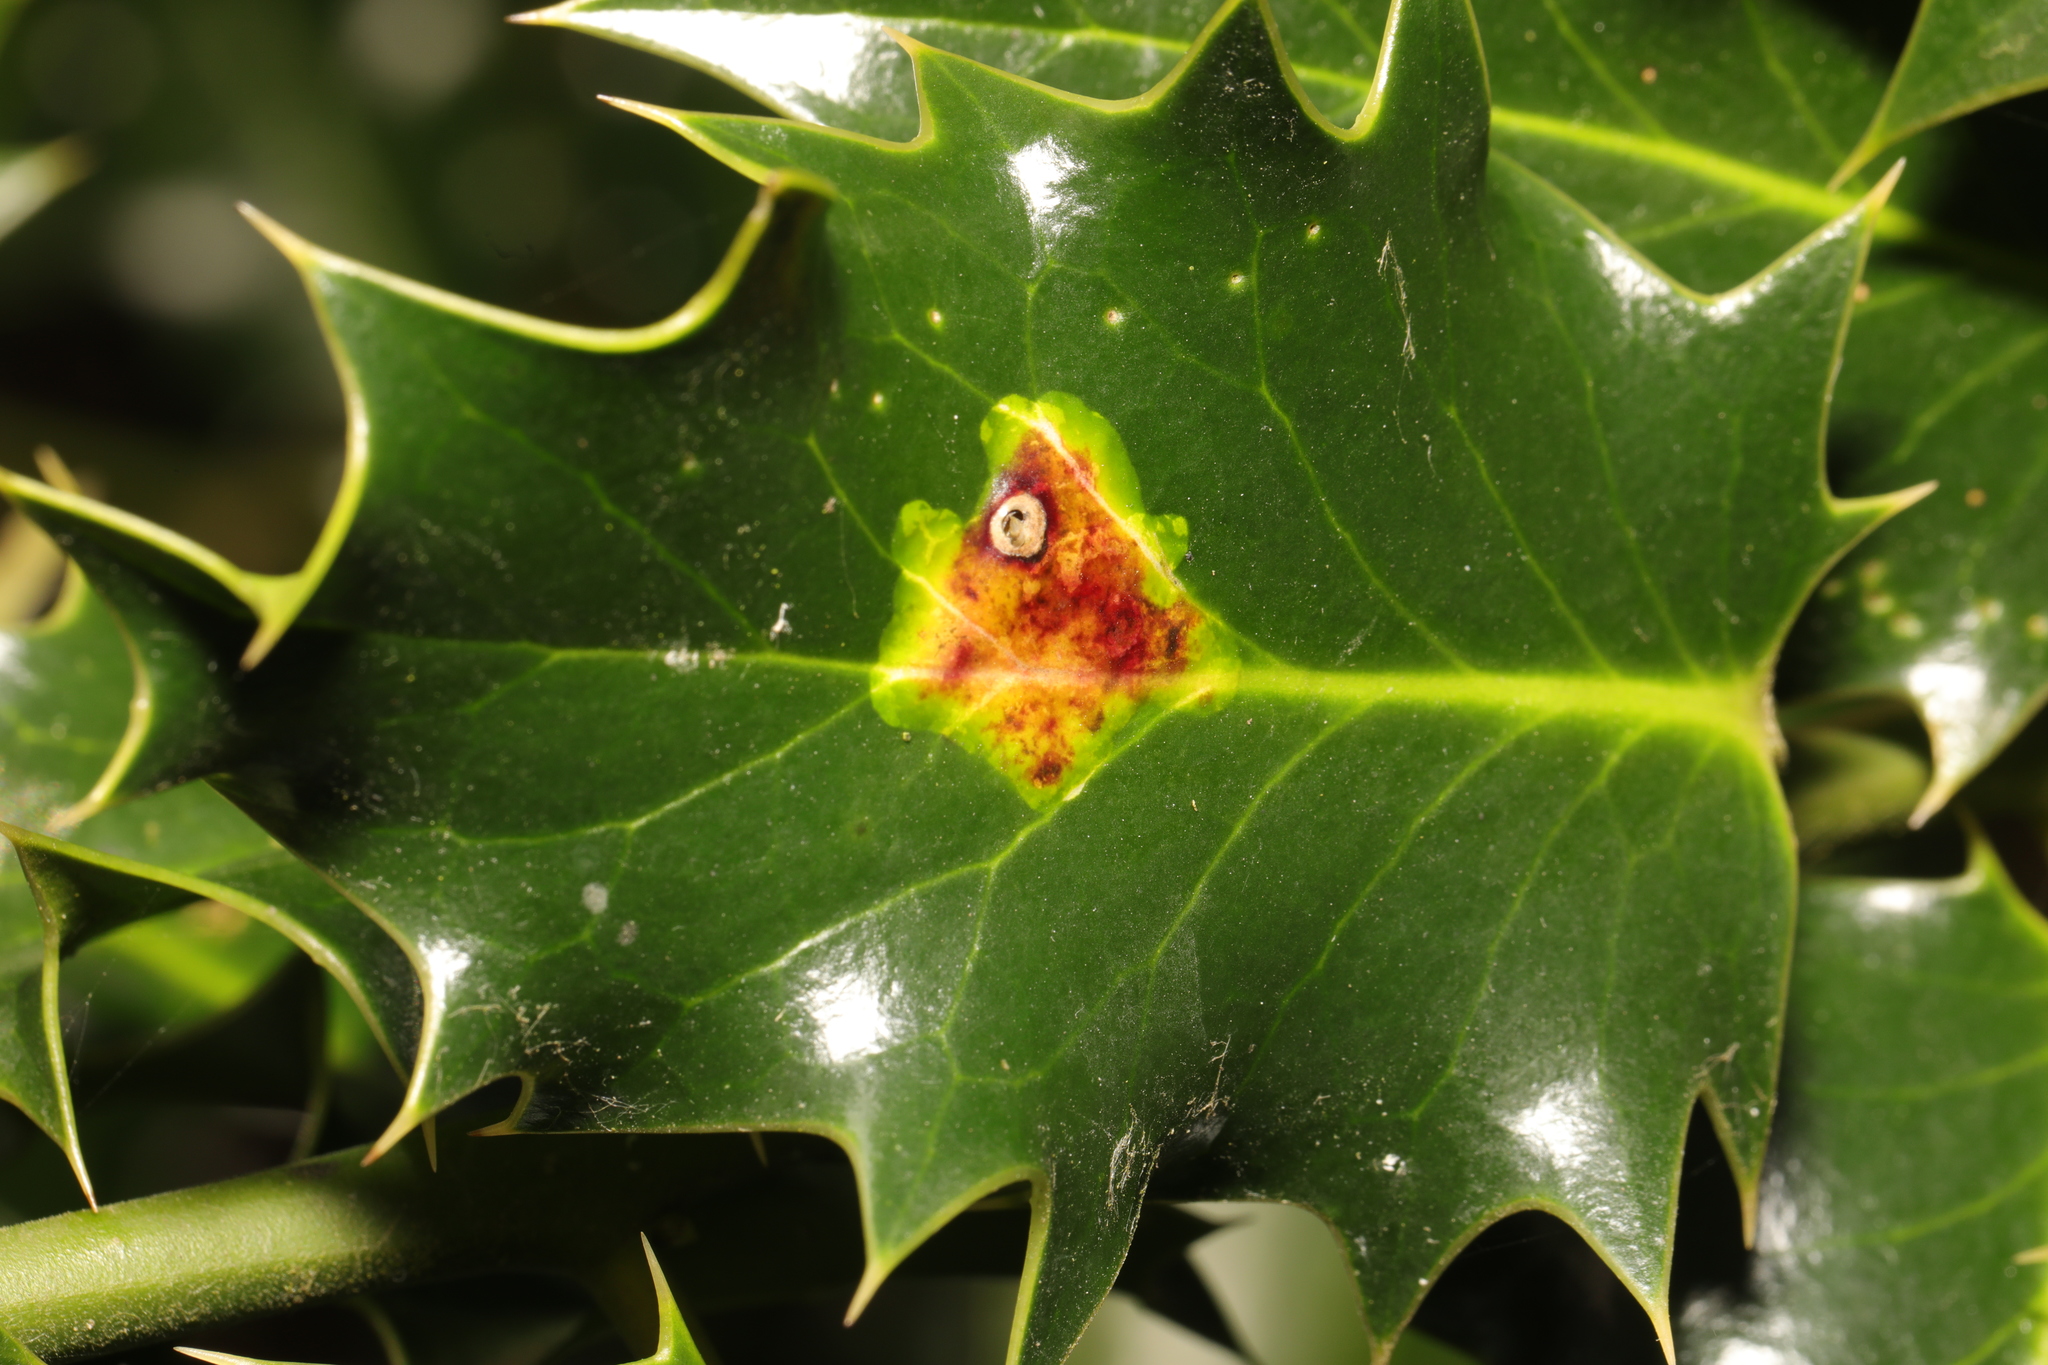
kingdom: Animalia
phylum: Arthropoda
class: Insecta
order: Diptera
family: Agromyzidae
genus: Phytomyza
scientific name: Phytomyza ilicis
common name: Holly leafminer
